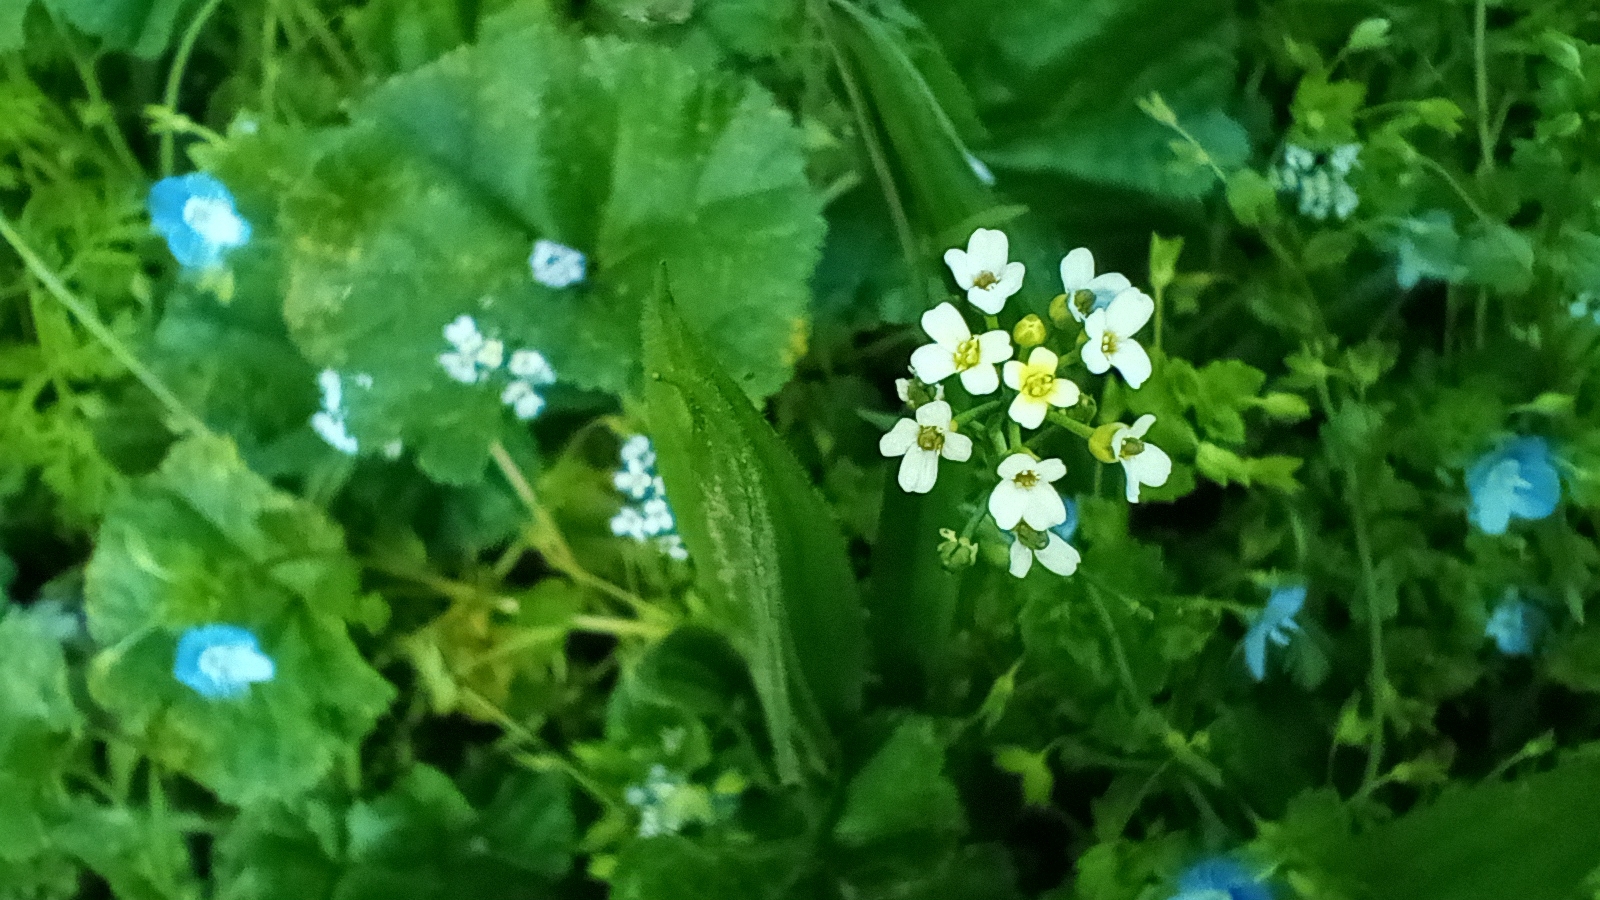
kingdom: Plantae
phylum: Tracheophyta
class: Magnoliopsida
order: Brassicales
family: Brassicaceae
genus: Calepina
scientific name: Calepina irregularis
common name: White ballmustard
